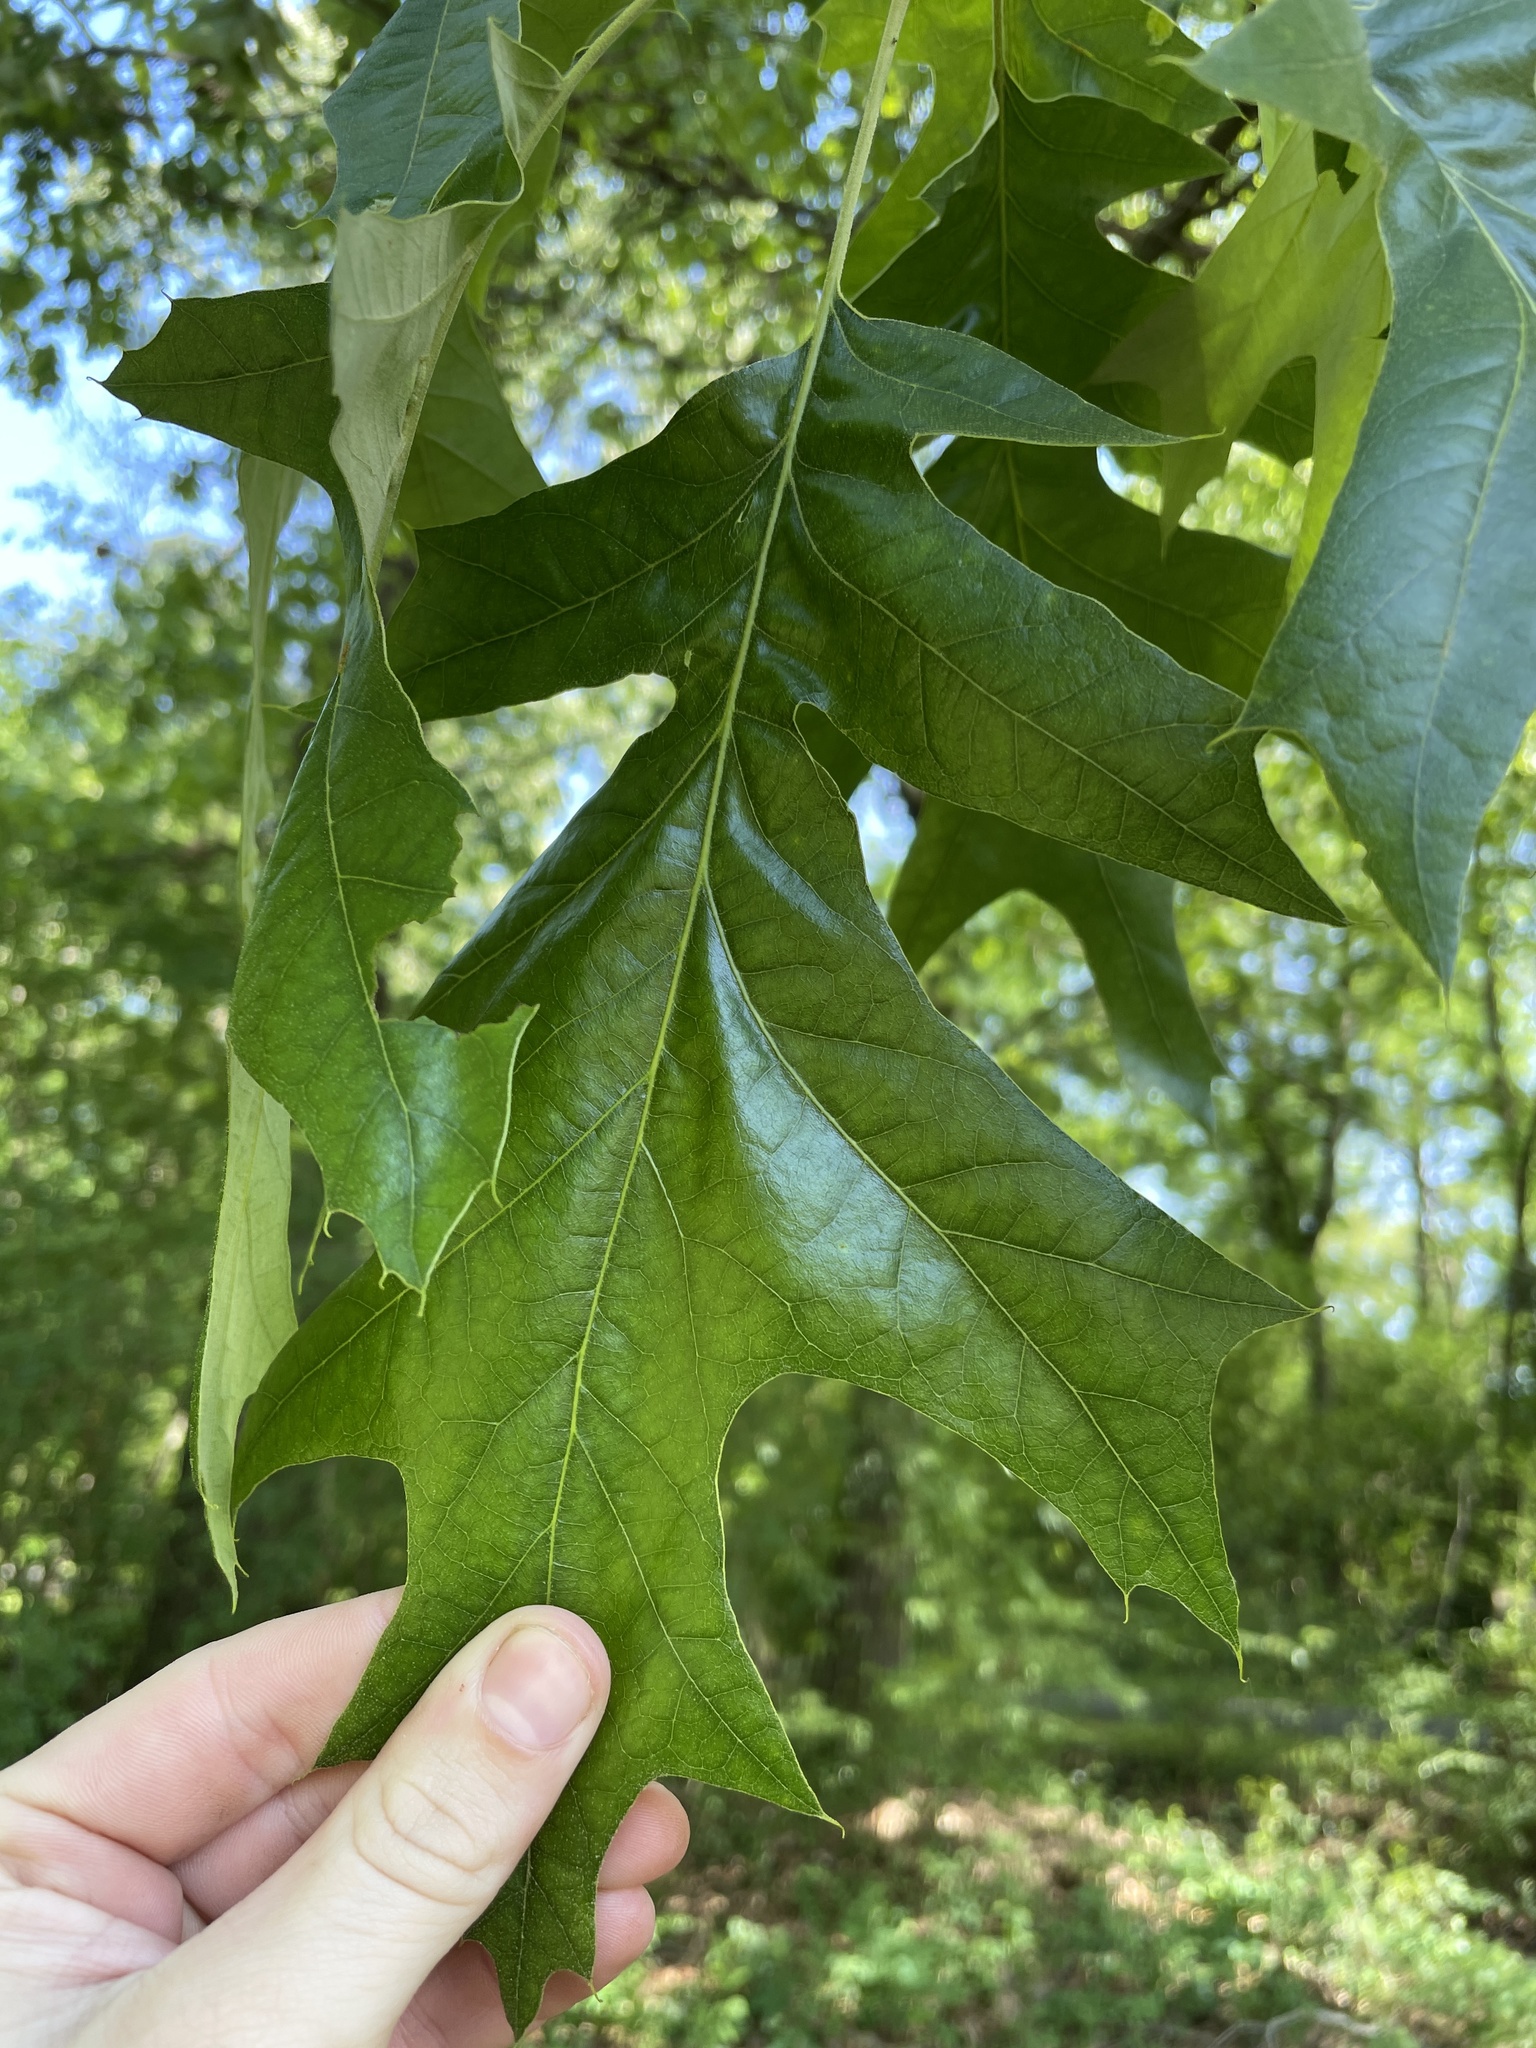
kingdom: Plantae
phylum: Tracheophyta
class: Magnoliopsida
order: Fagales
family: Fagaceae
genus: Quercus
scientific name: Quercus pagoda
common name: Cherrybark oak
